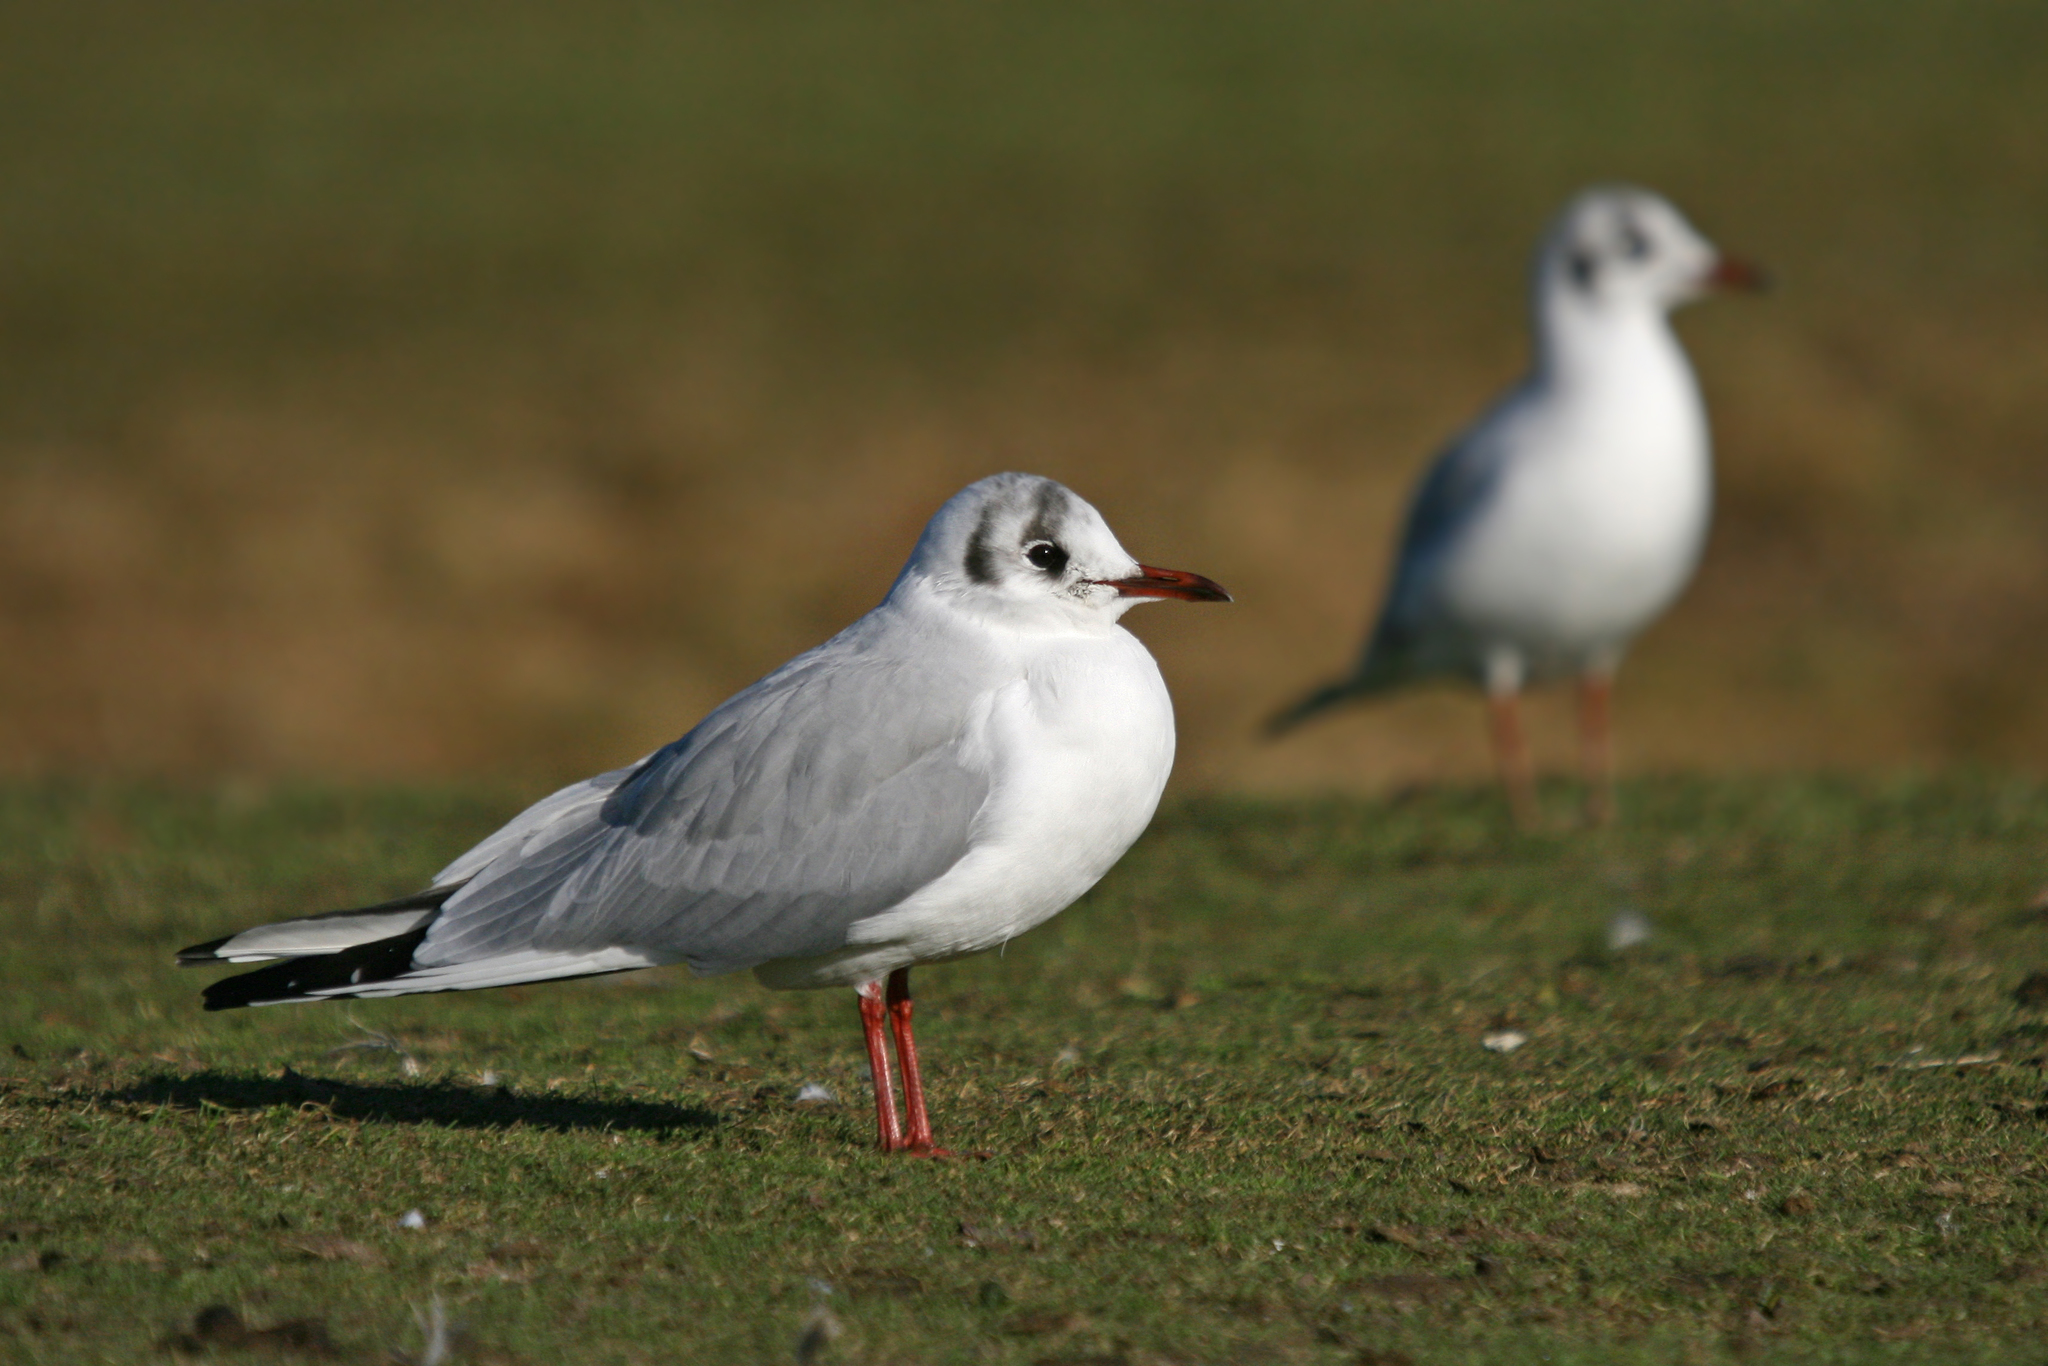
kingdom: Animalia
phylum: Chordata
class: Aves
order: Charadriiformes
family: Laridae
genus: Chroicocephalus
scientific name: Chroicocephalus ridibundus
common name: Black-headed gull
